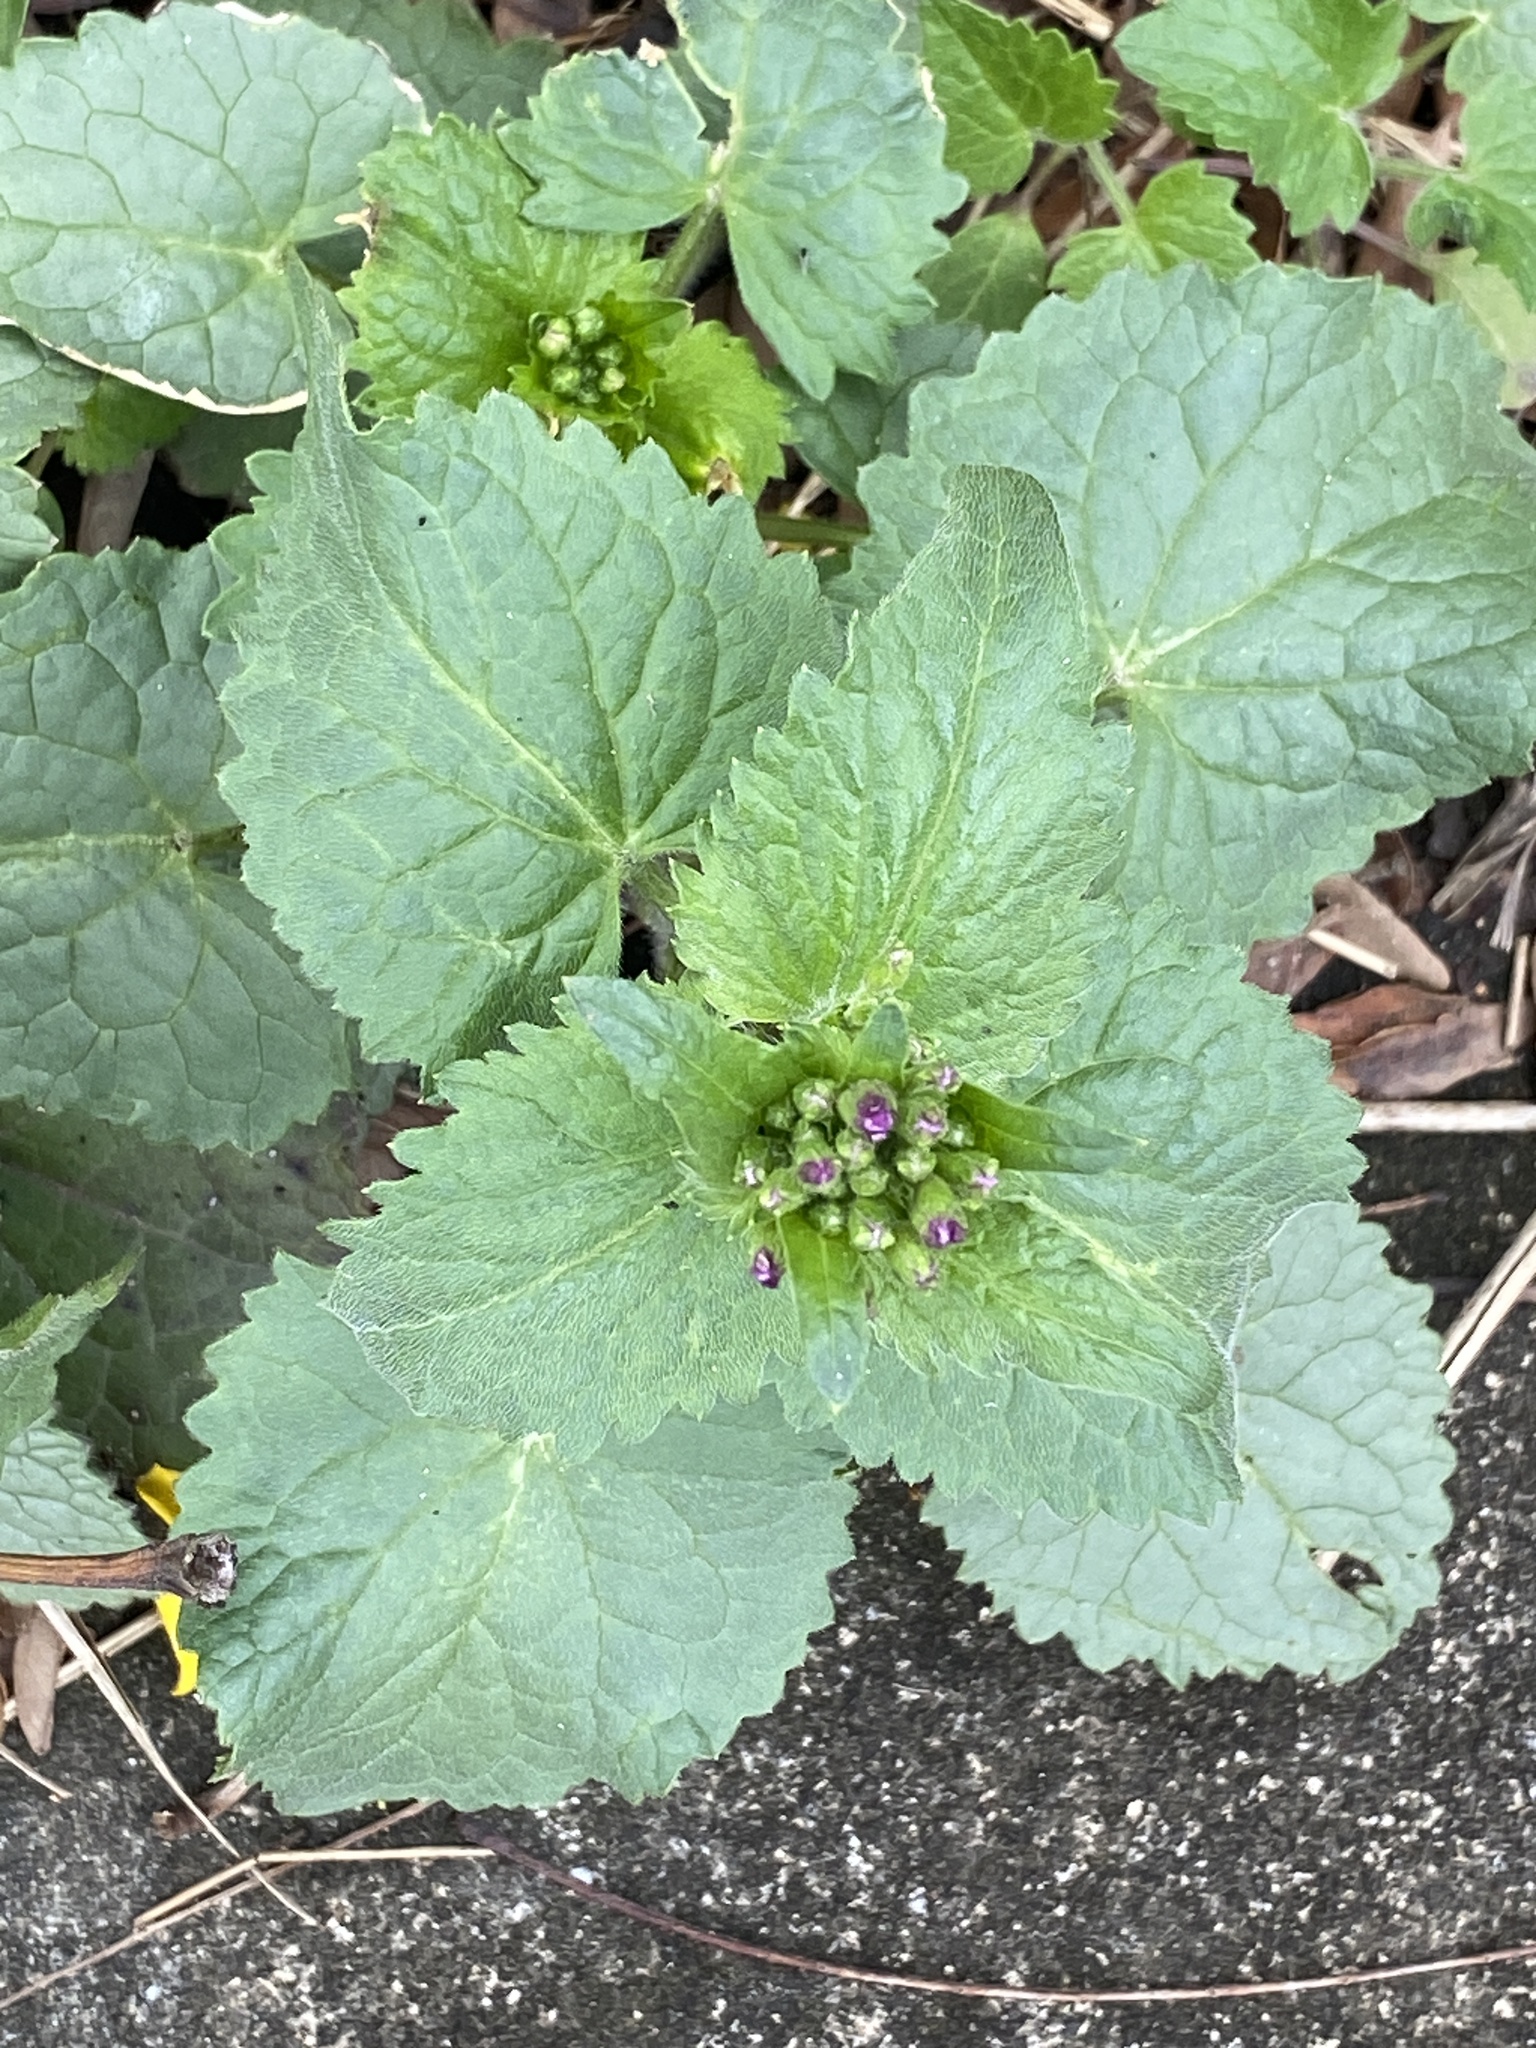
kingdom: Plantae
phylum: Tracheophyta
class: Magnoliopsida
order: Brassicales
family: Brassicaceae
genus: Lunaria
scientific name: Lunaria annua
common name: Honesty
